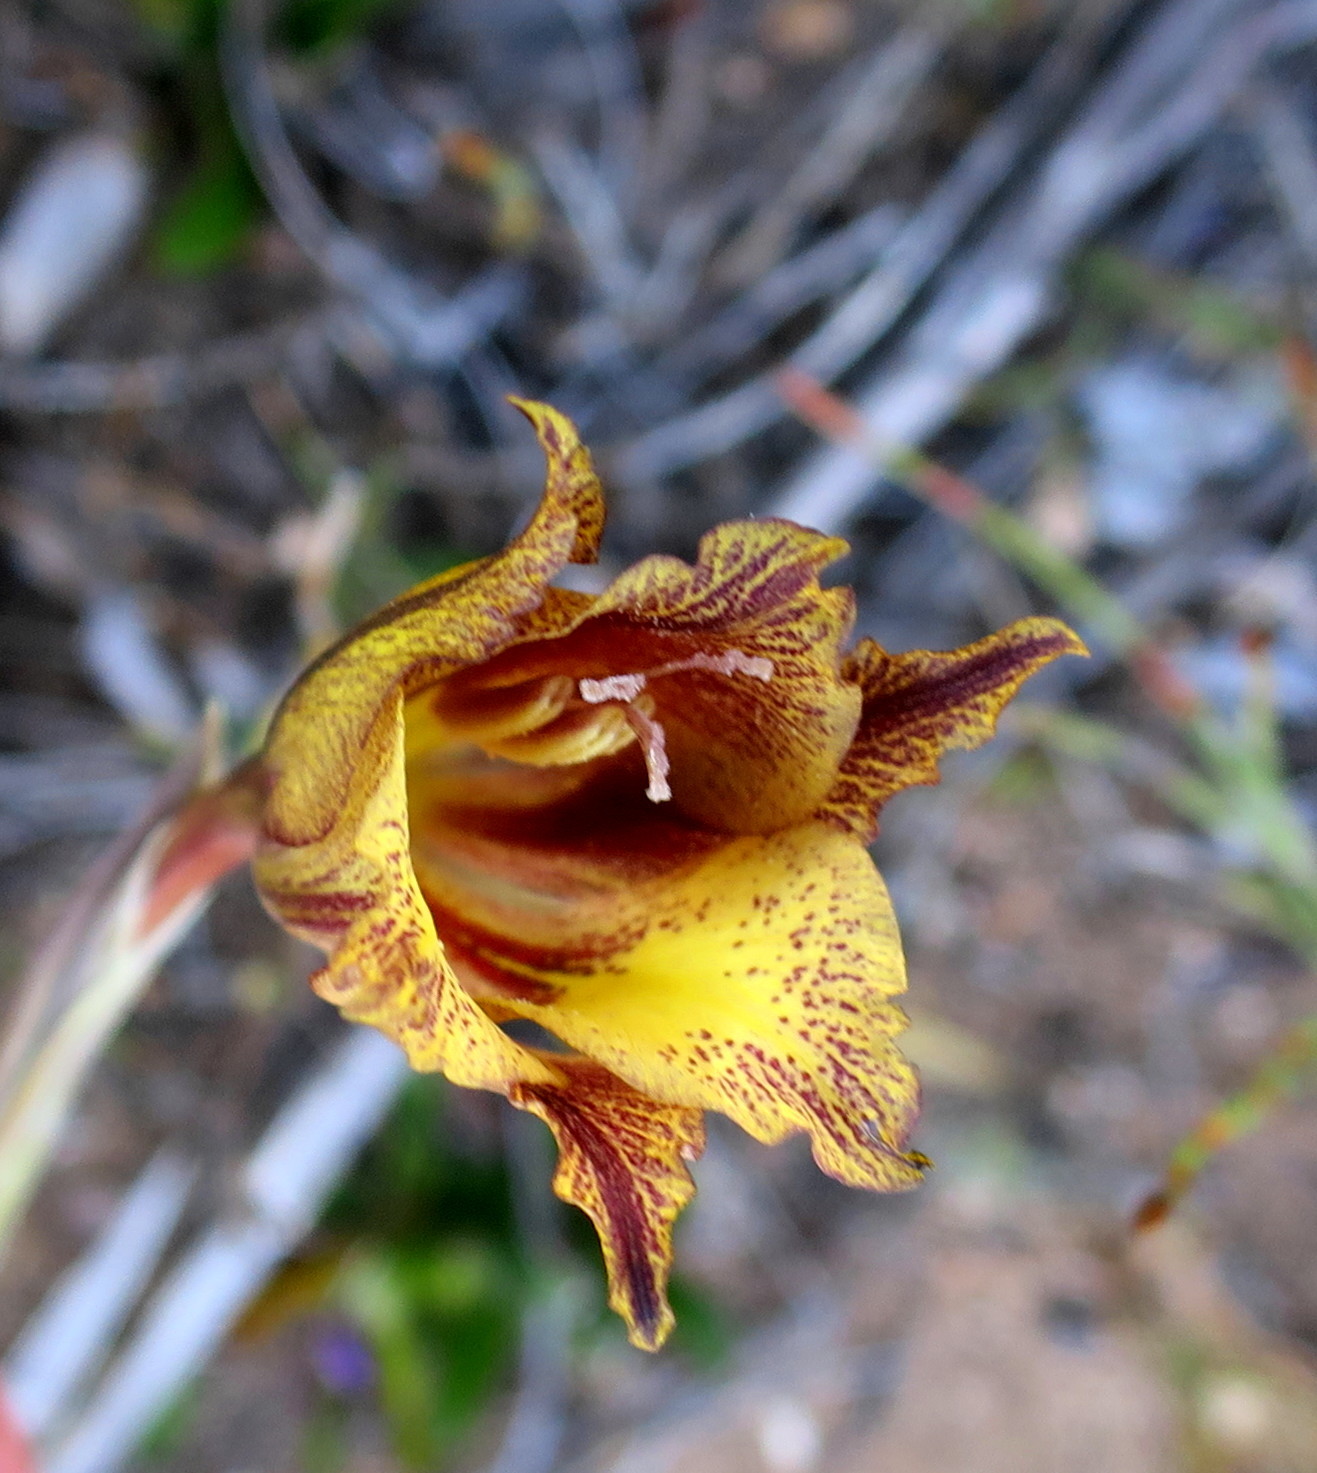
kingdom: Plantae
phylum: Tracheophyta
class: Liliopsida
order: Asparagales
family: Iridaceae
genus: Gladiolus
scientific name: Gladiolus maculatus
